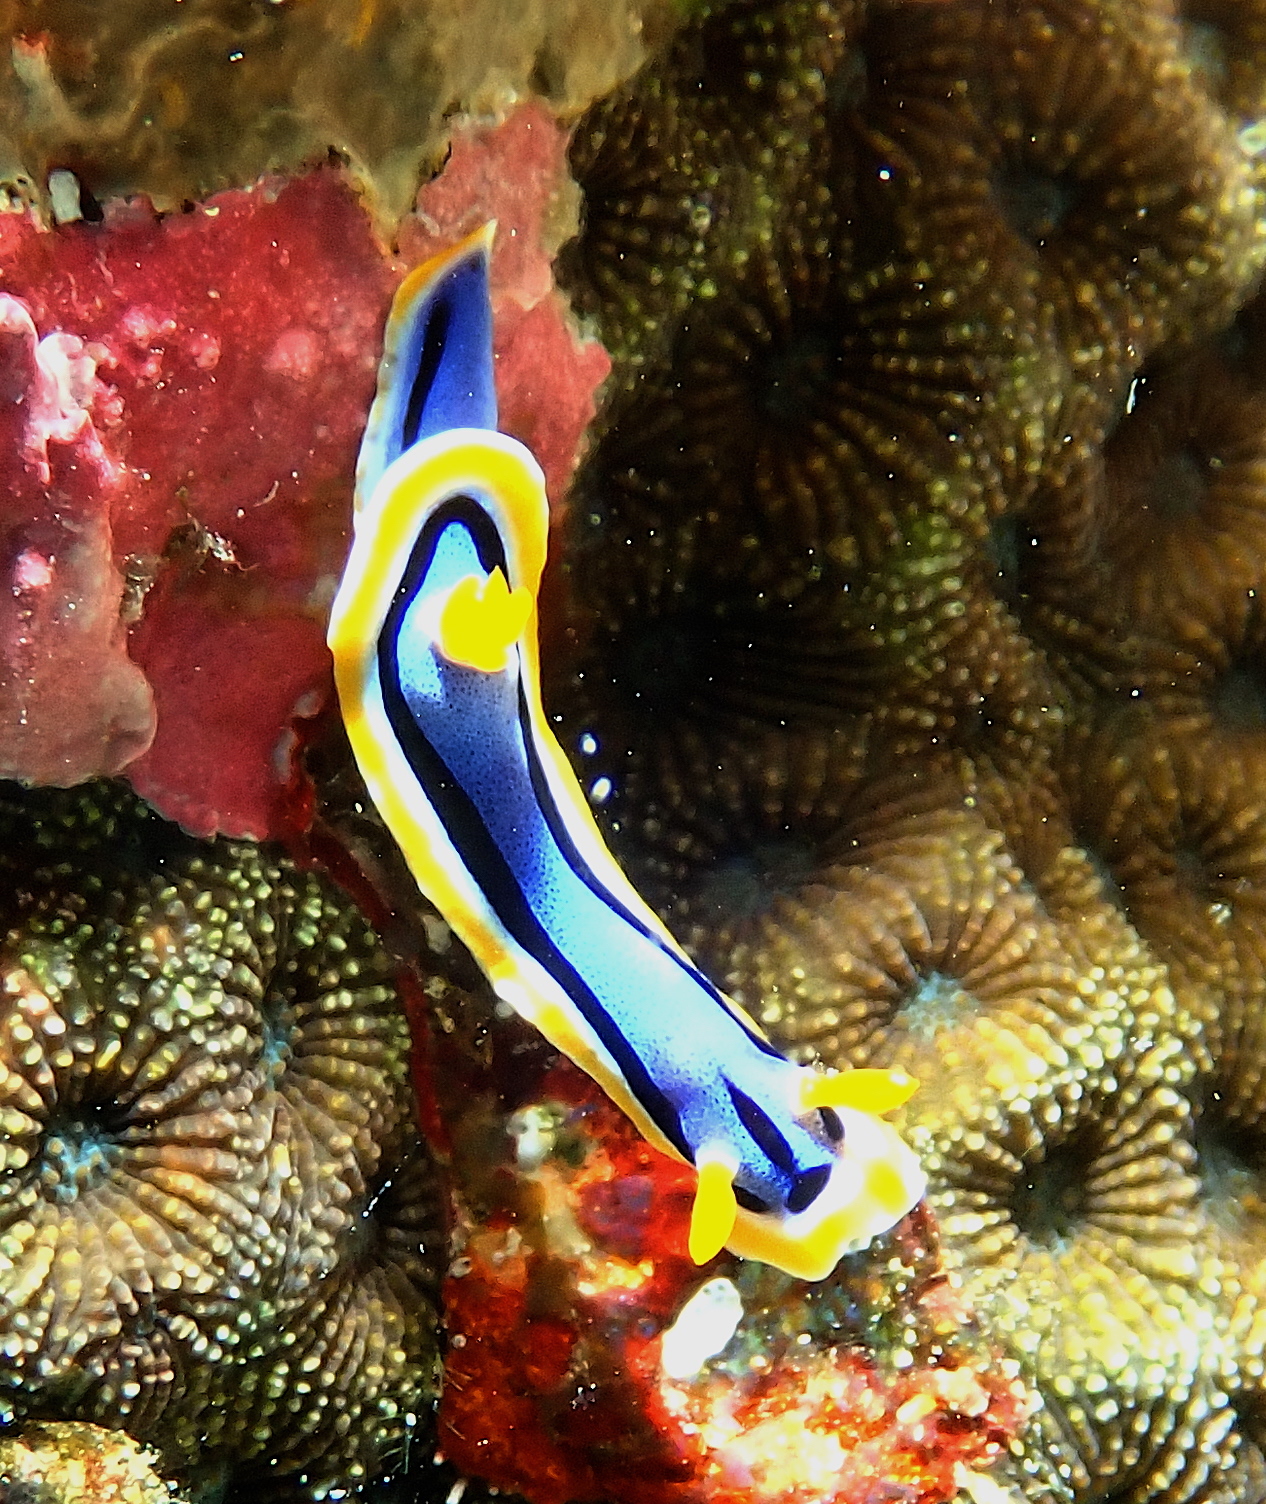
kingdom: Animalia
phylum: Mollusca
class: Gastropoda
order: Nudibranchia
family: Chromodorididae
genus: Chromodoris
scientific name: Chromodoris annae
